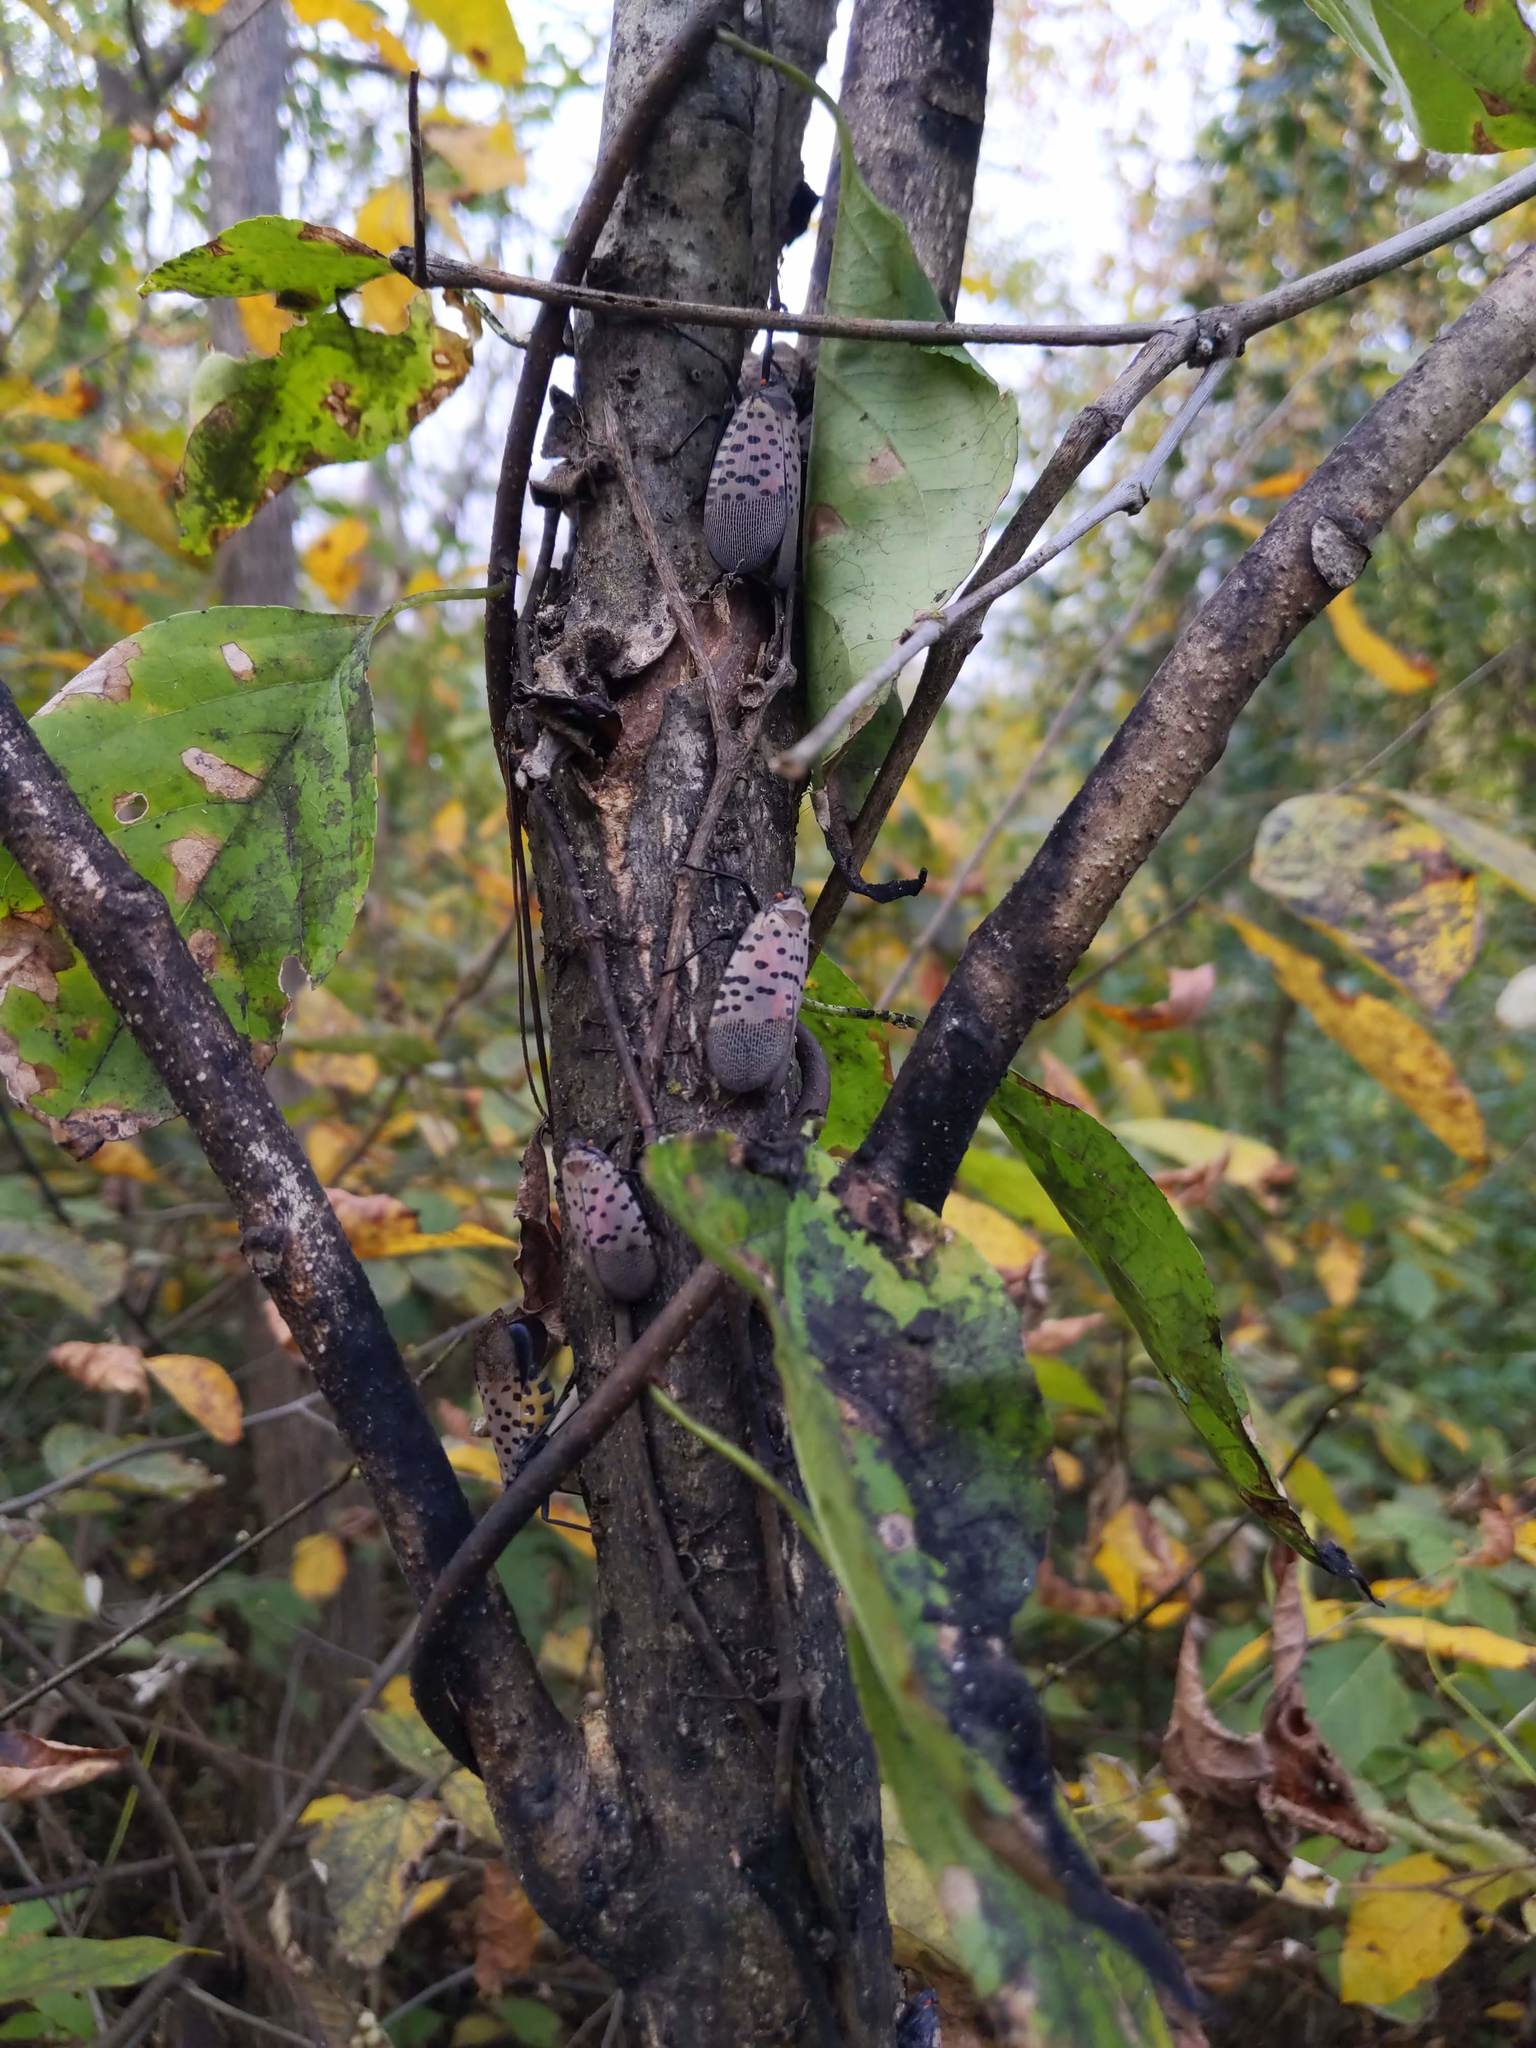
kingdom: Animalia
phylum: Arthropoda
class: Insecta
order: Hemiptera
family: Fulgoridae
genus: Lycorma
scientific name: Lycorma delicatula
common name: Spotted lanternfly
